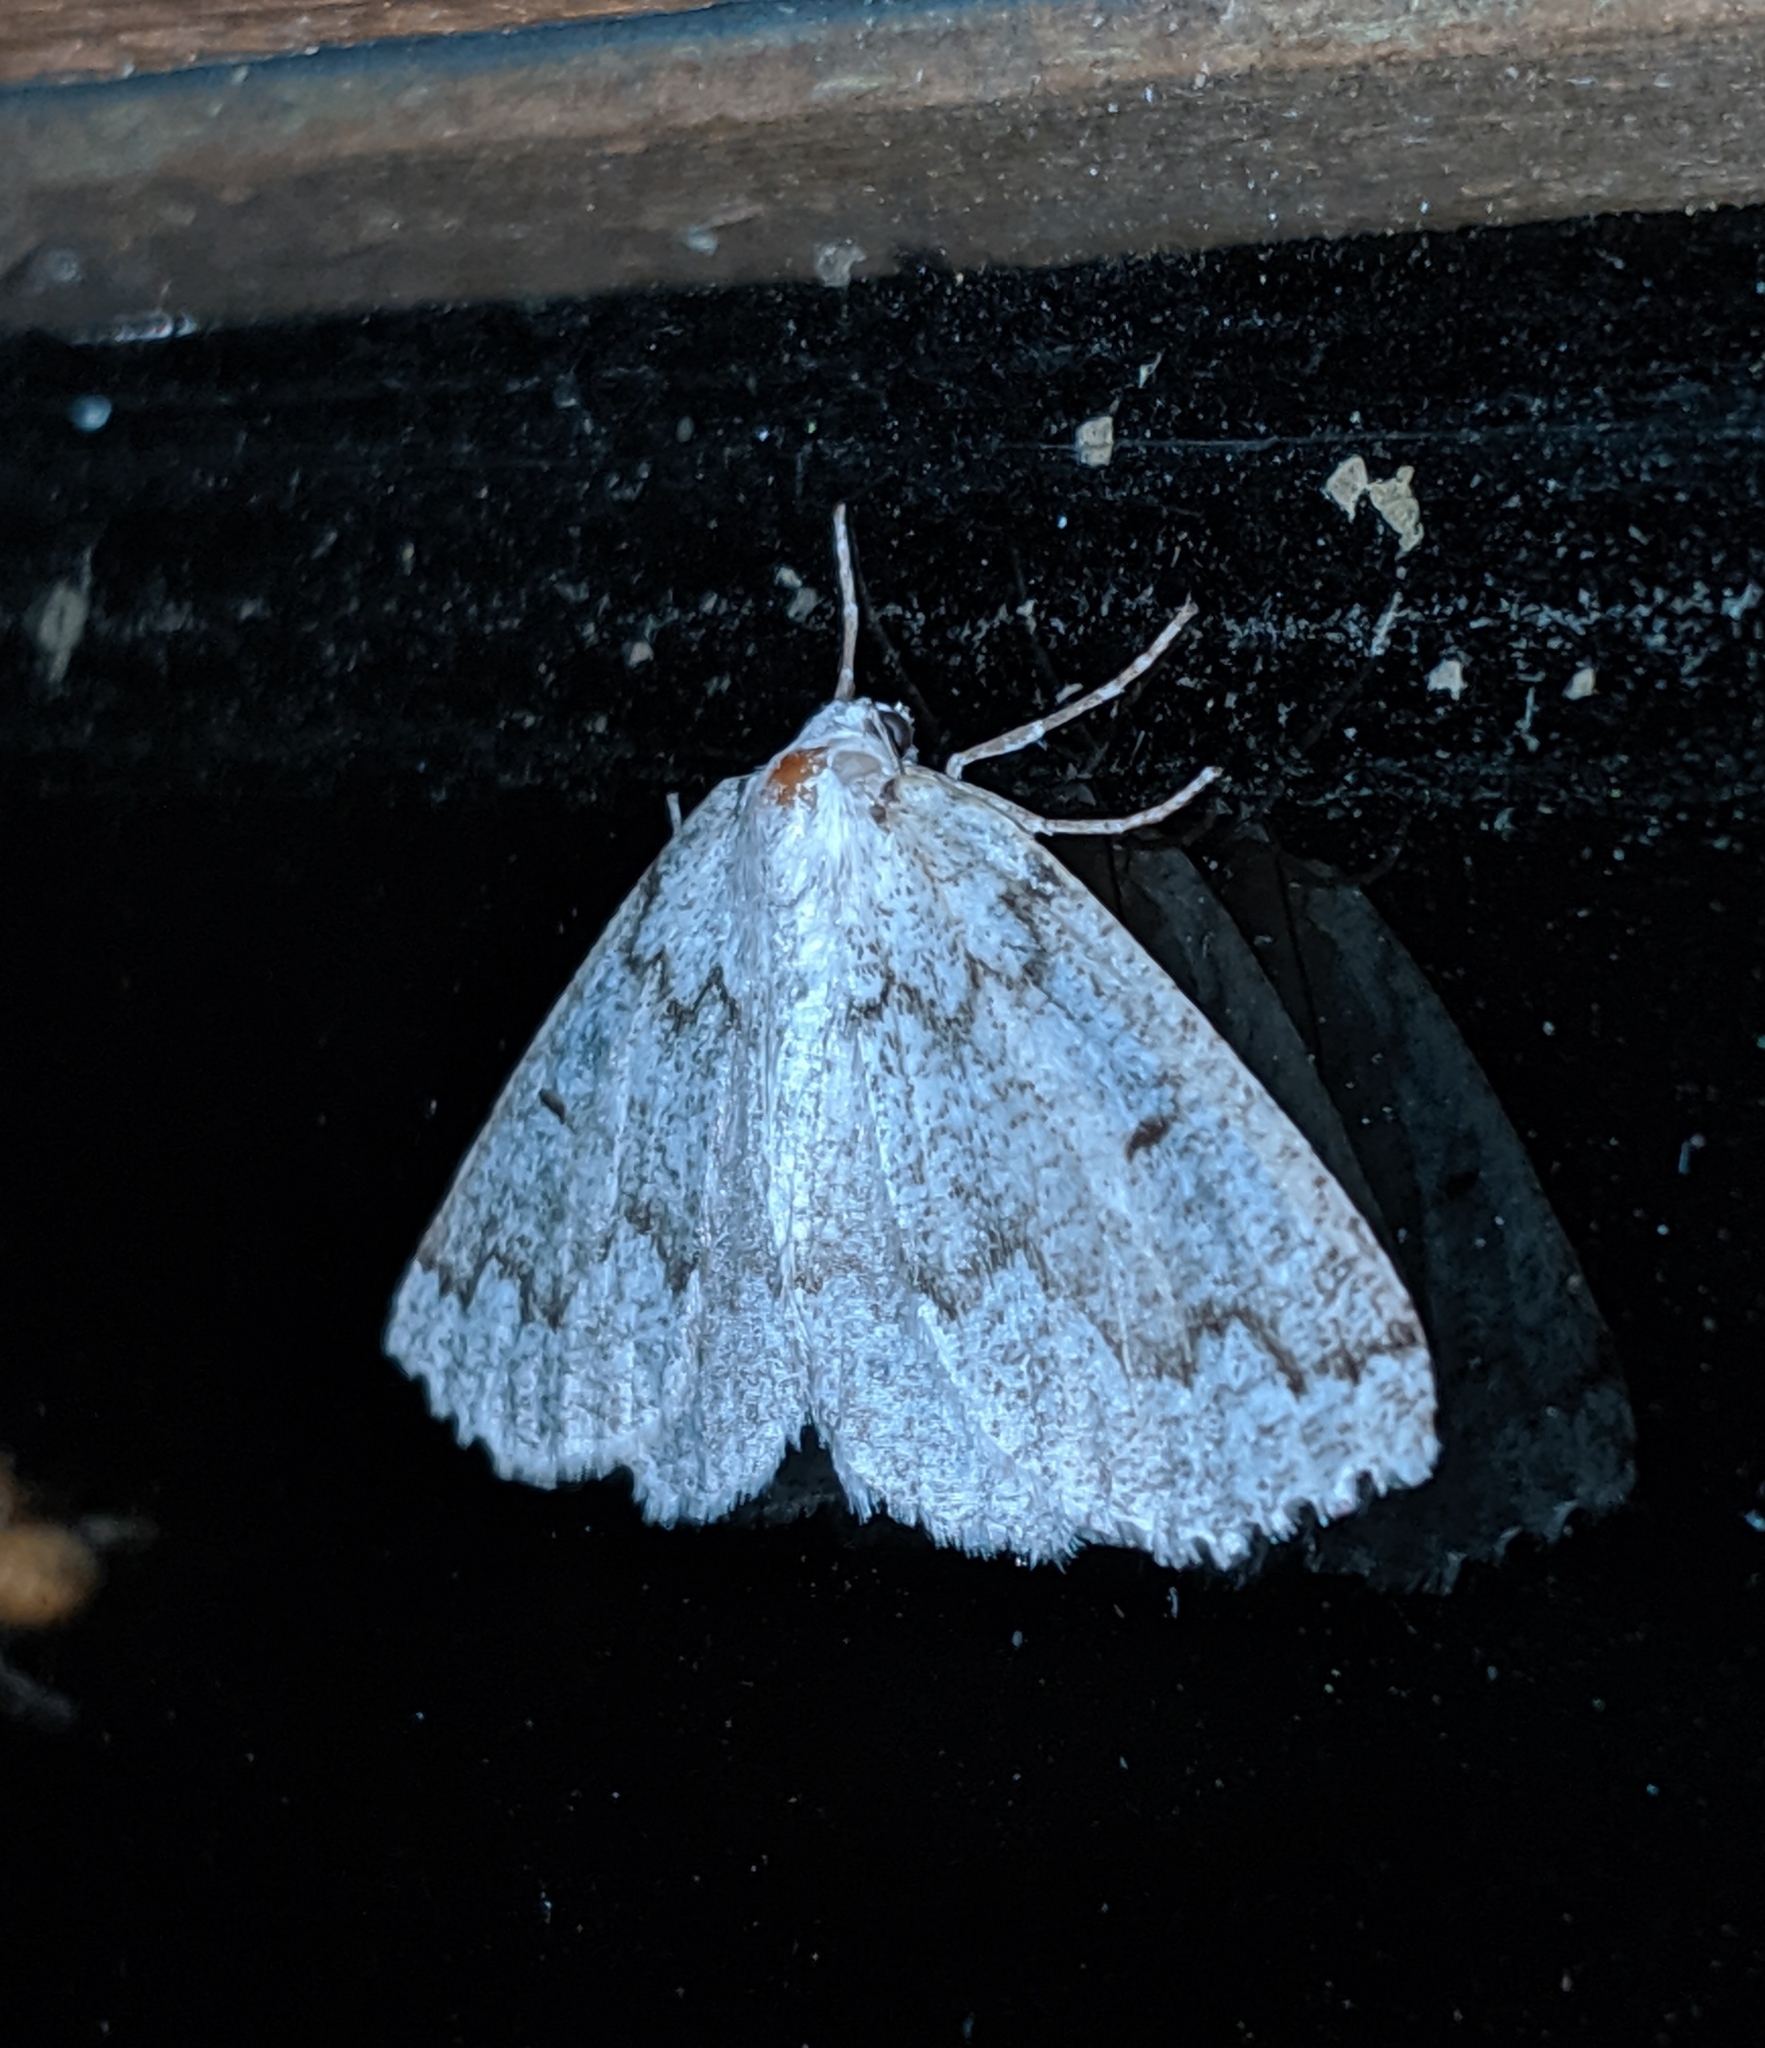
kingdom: Animalia
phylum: Arthropoda
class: Insecta
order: Lepidoptera
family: Geometridae
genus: Sabulodes
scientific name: Sabulodes
